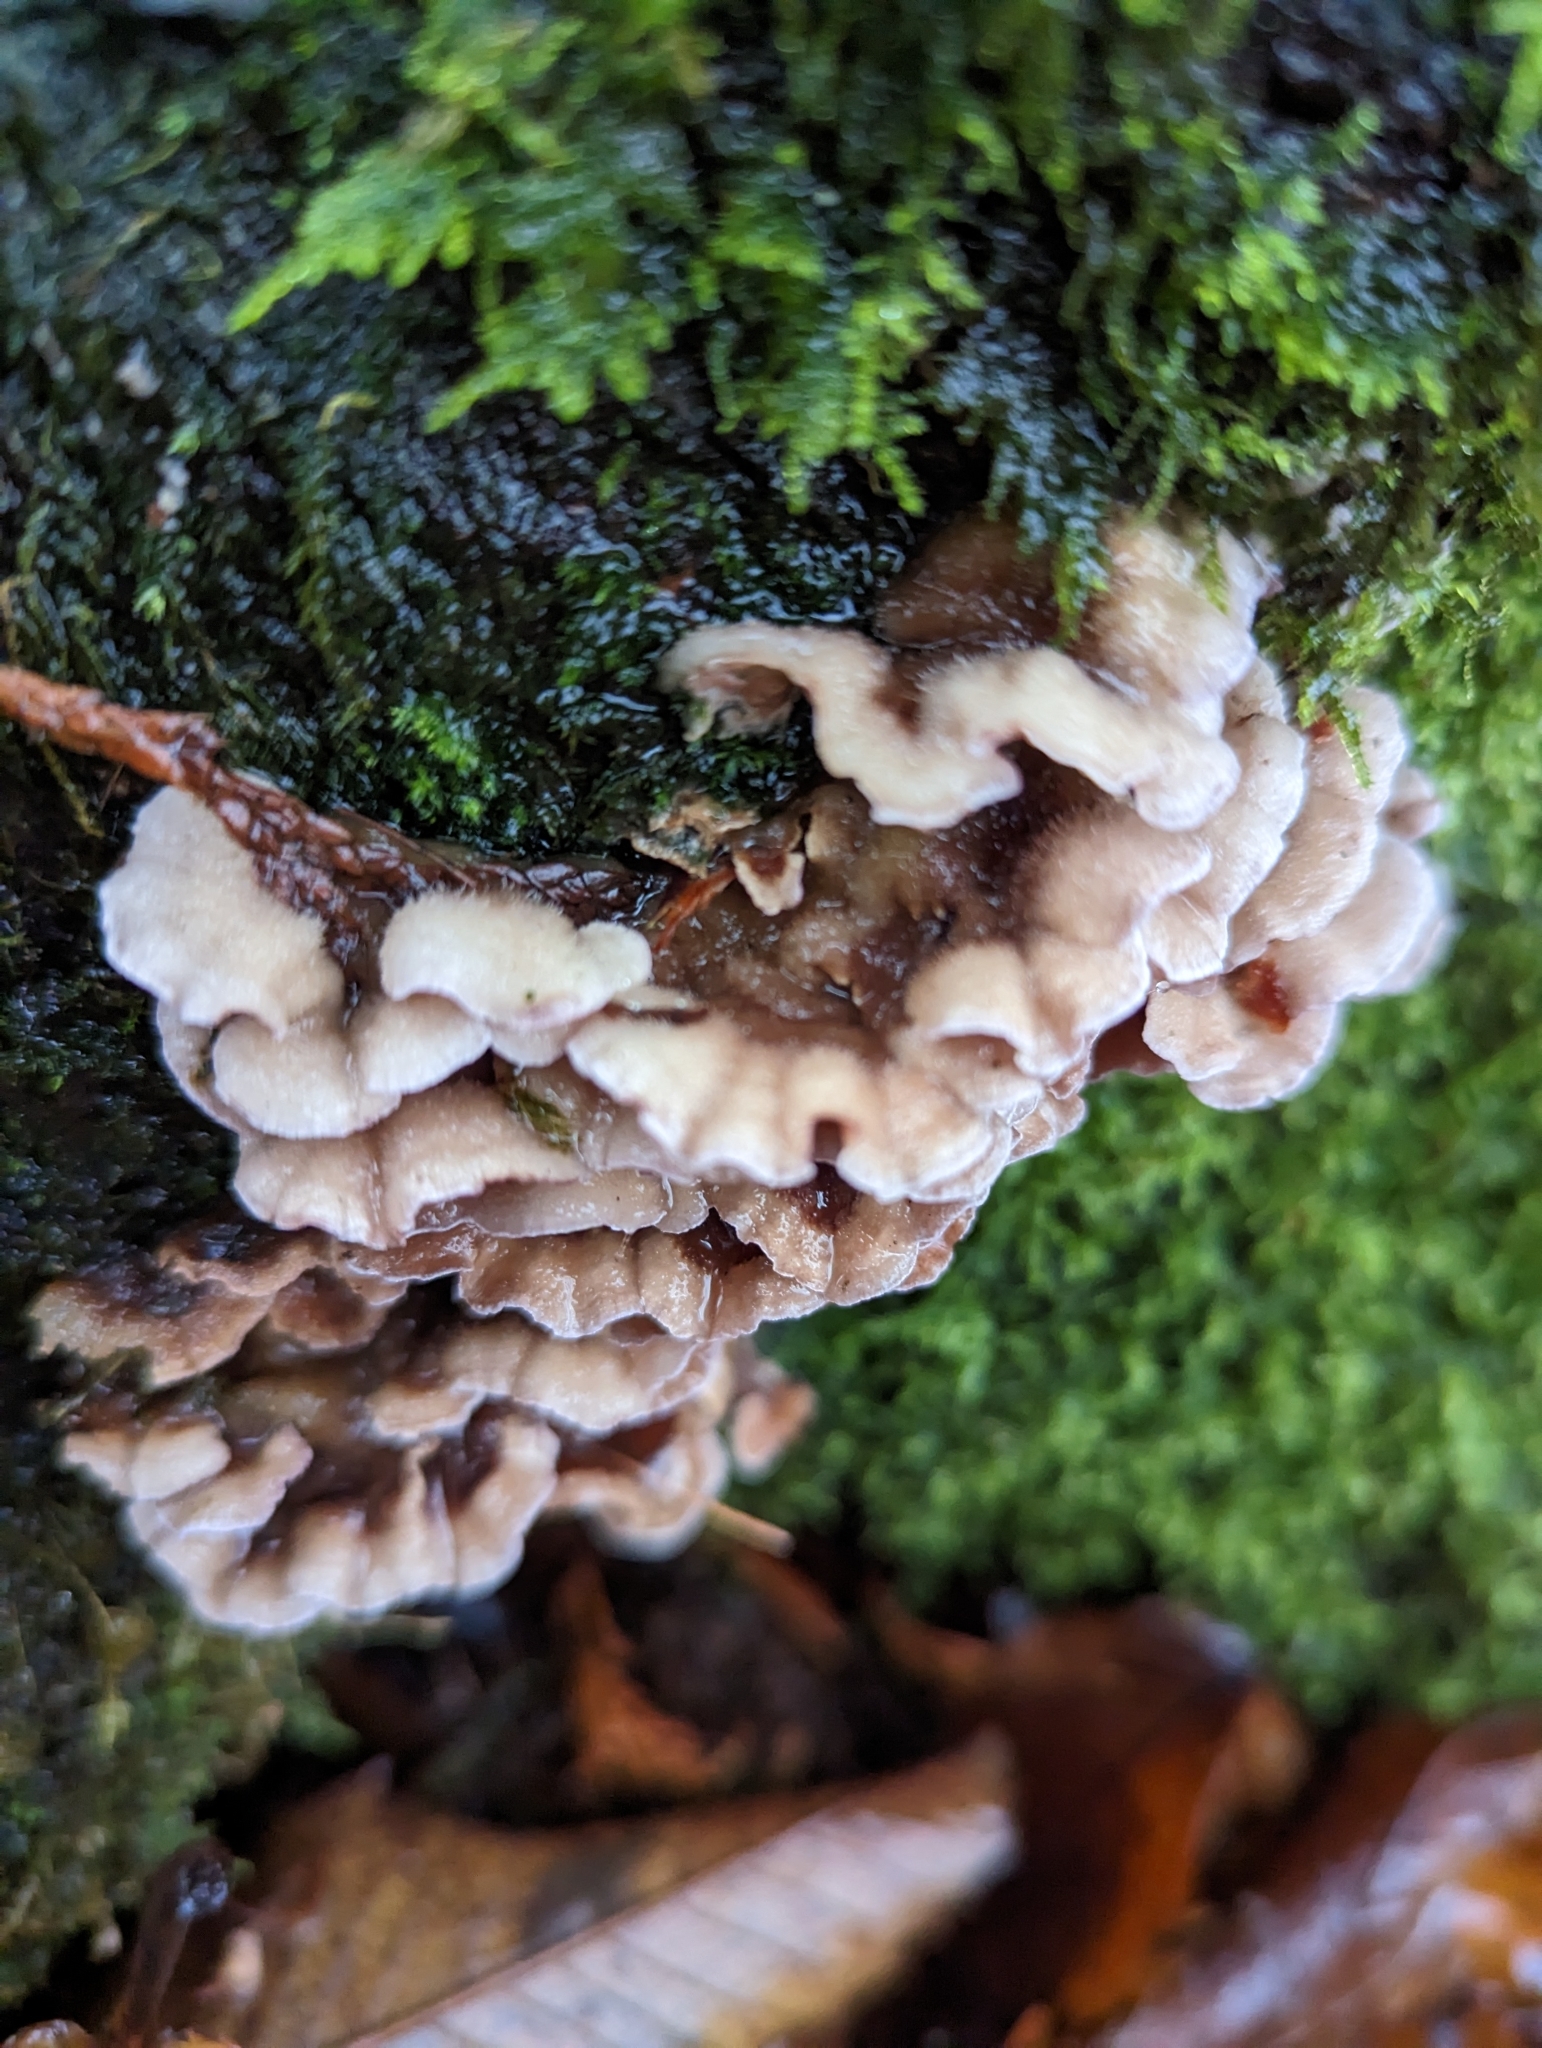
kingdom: Fungi
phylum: Basidiomycota
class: Agaricomycetes
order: Agaricales
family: Cyphellaceae
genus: Chondrostereum
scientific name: Chondrostereum purpureum
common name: Silver leaf disease
